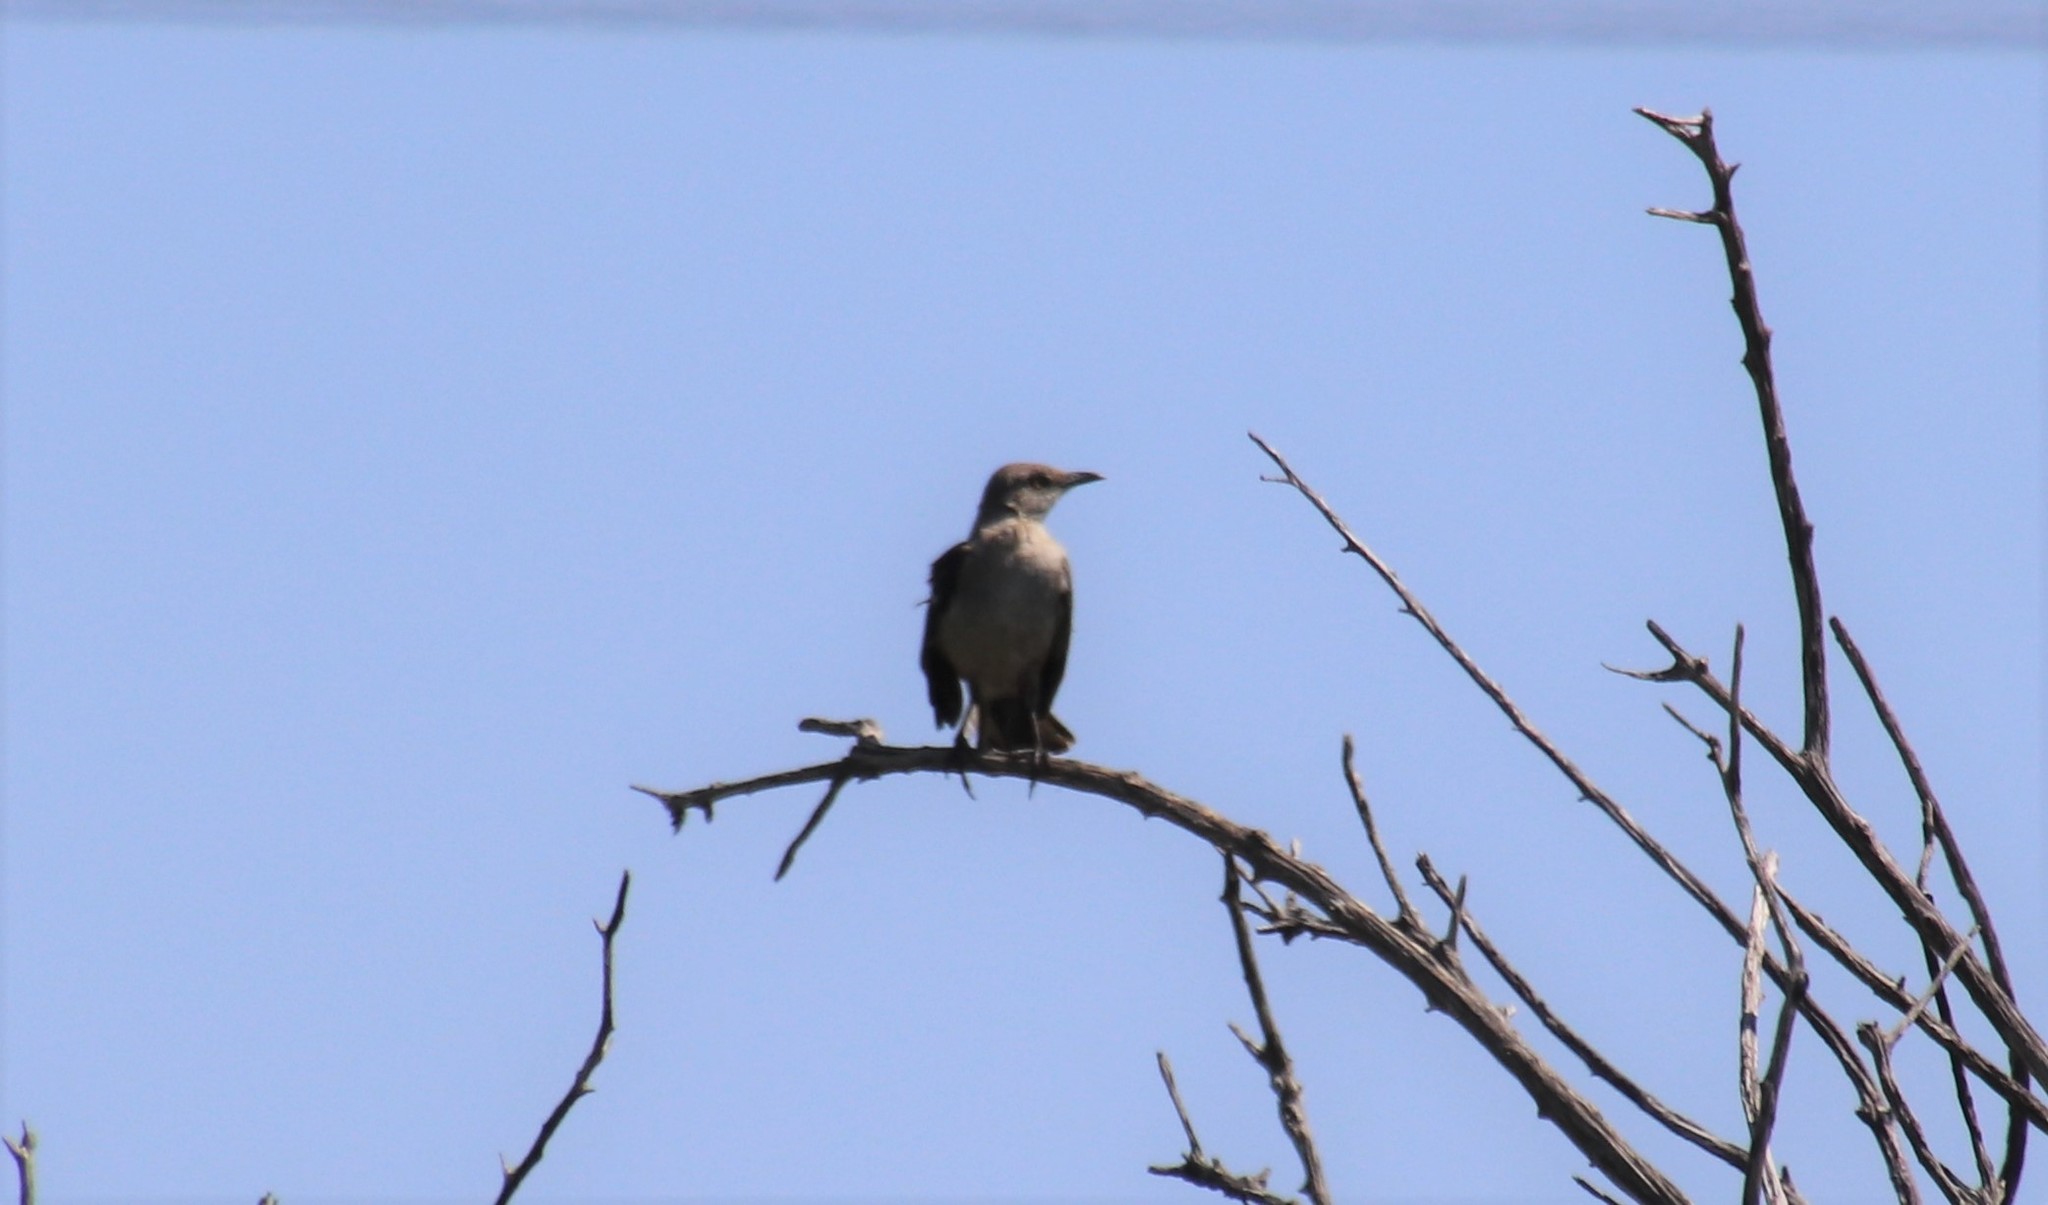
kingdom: Animalia
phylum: Chordata
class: Aves
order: Passeriformes
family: Mimidae
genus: Mimus
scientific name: Mimus polyglottos
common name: Northern mockingbird
